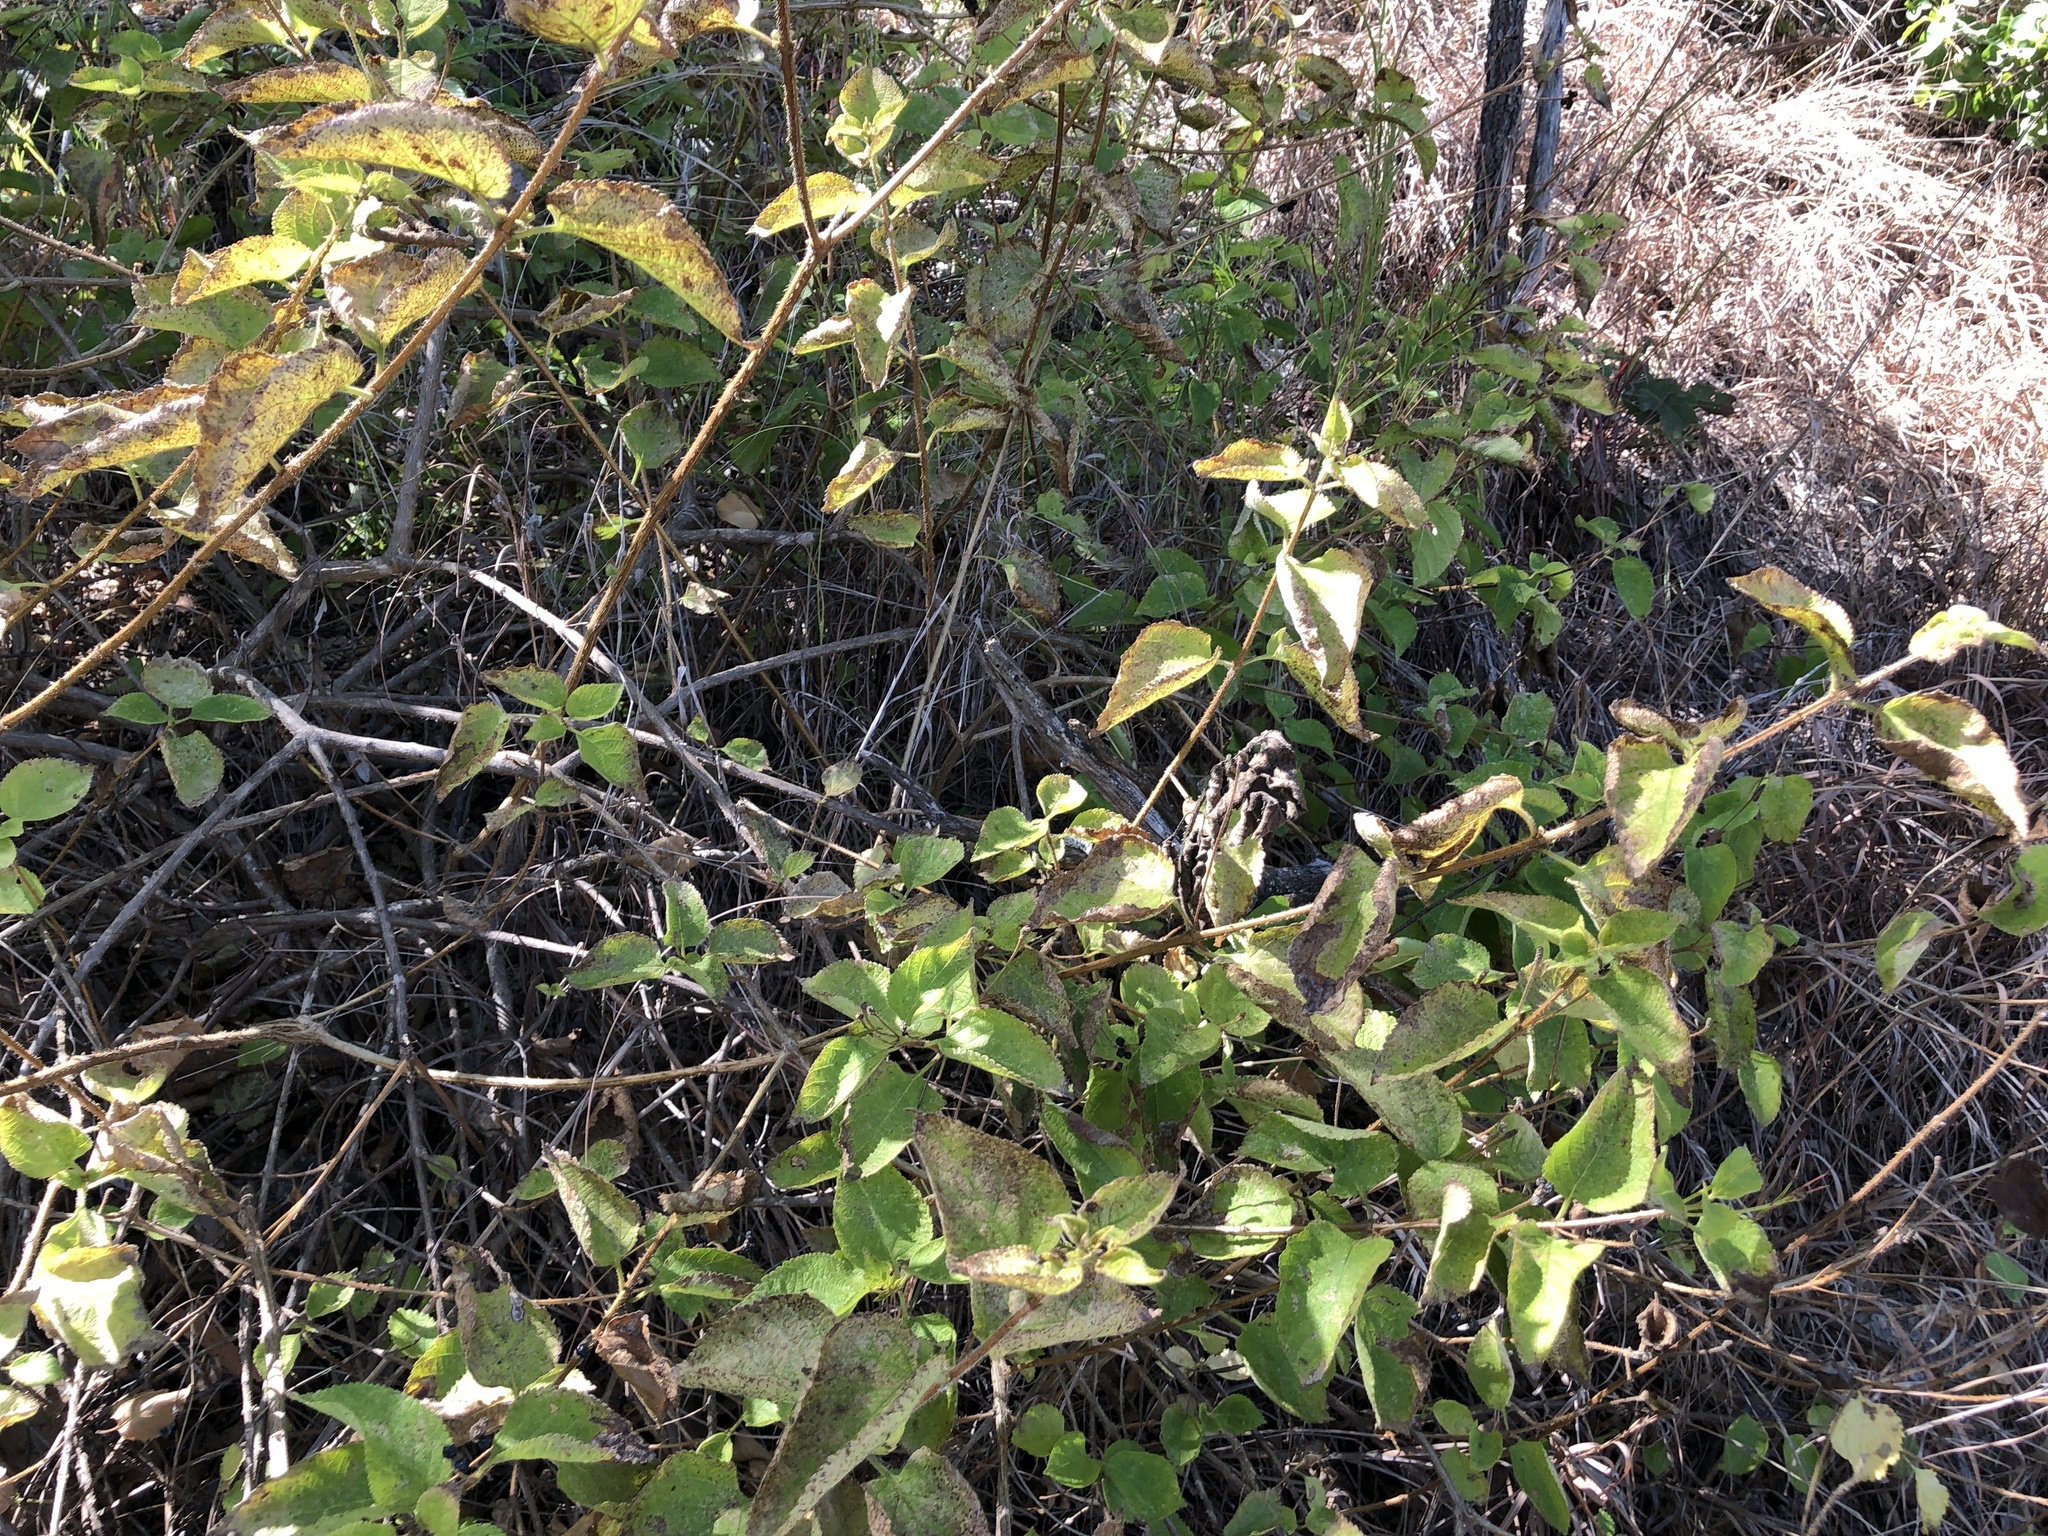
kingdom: Plantae
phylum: Tracheophyta
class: Magnoliopsida
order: Lamiales
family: Verbenaceae
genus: Lantana
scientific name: Lantana camara
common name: Lantana
